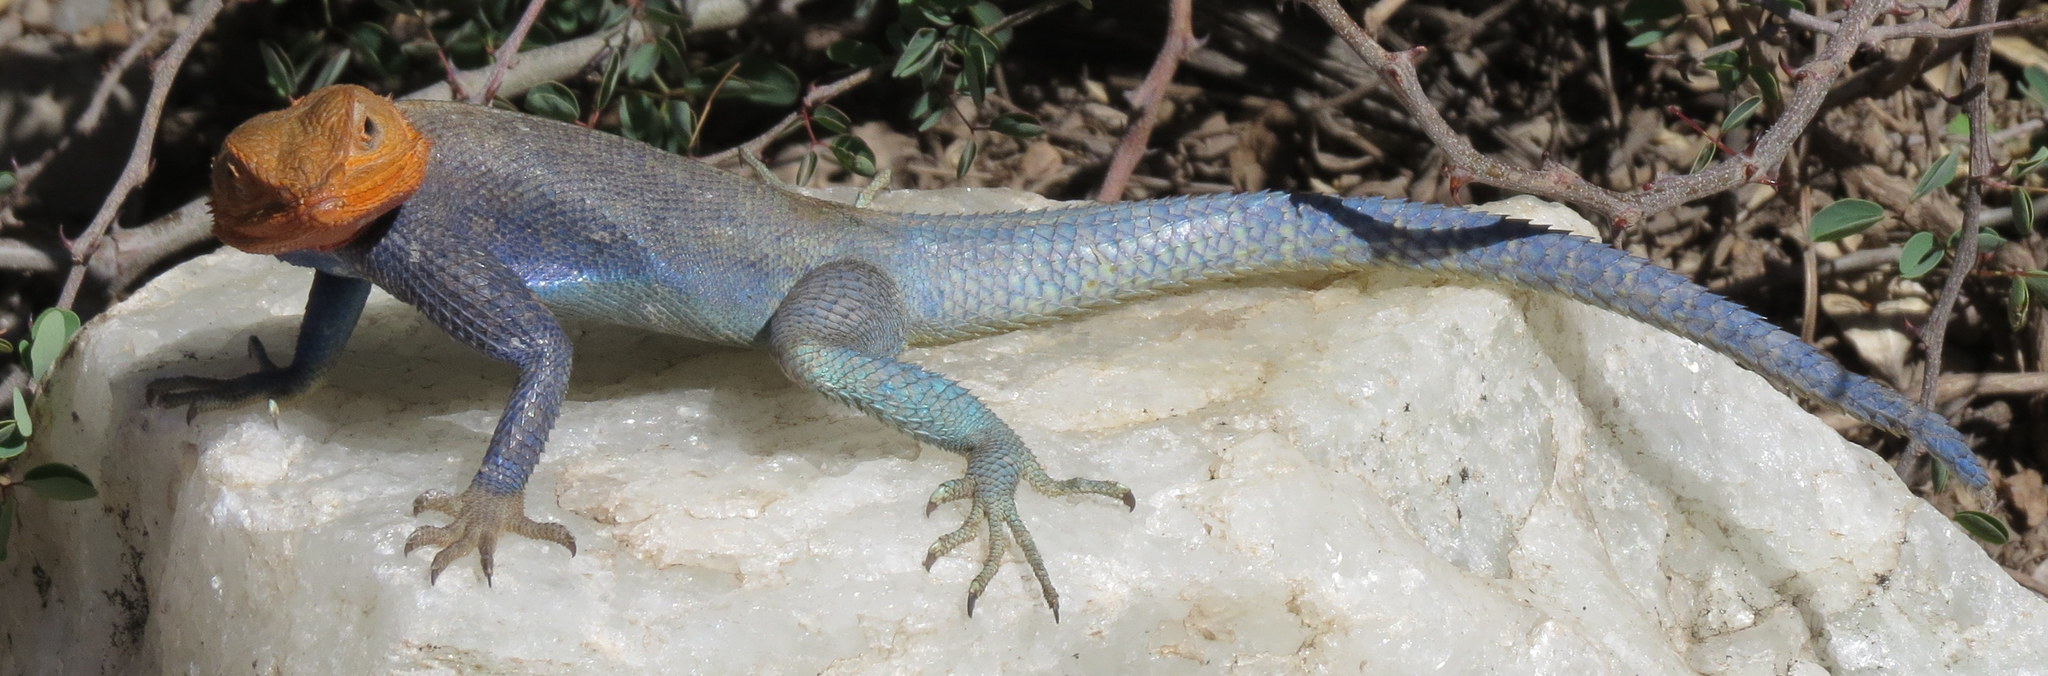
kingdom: Animalia
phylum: Chordata
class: Squamata
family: Agamidae
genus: Agama
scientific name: Agama dodomae
